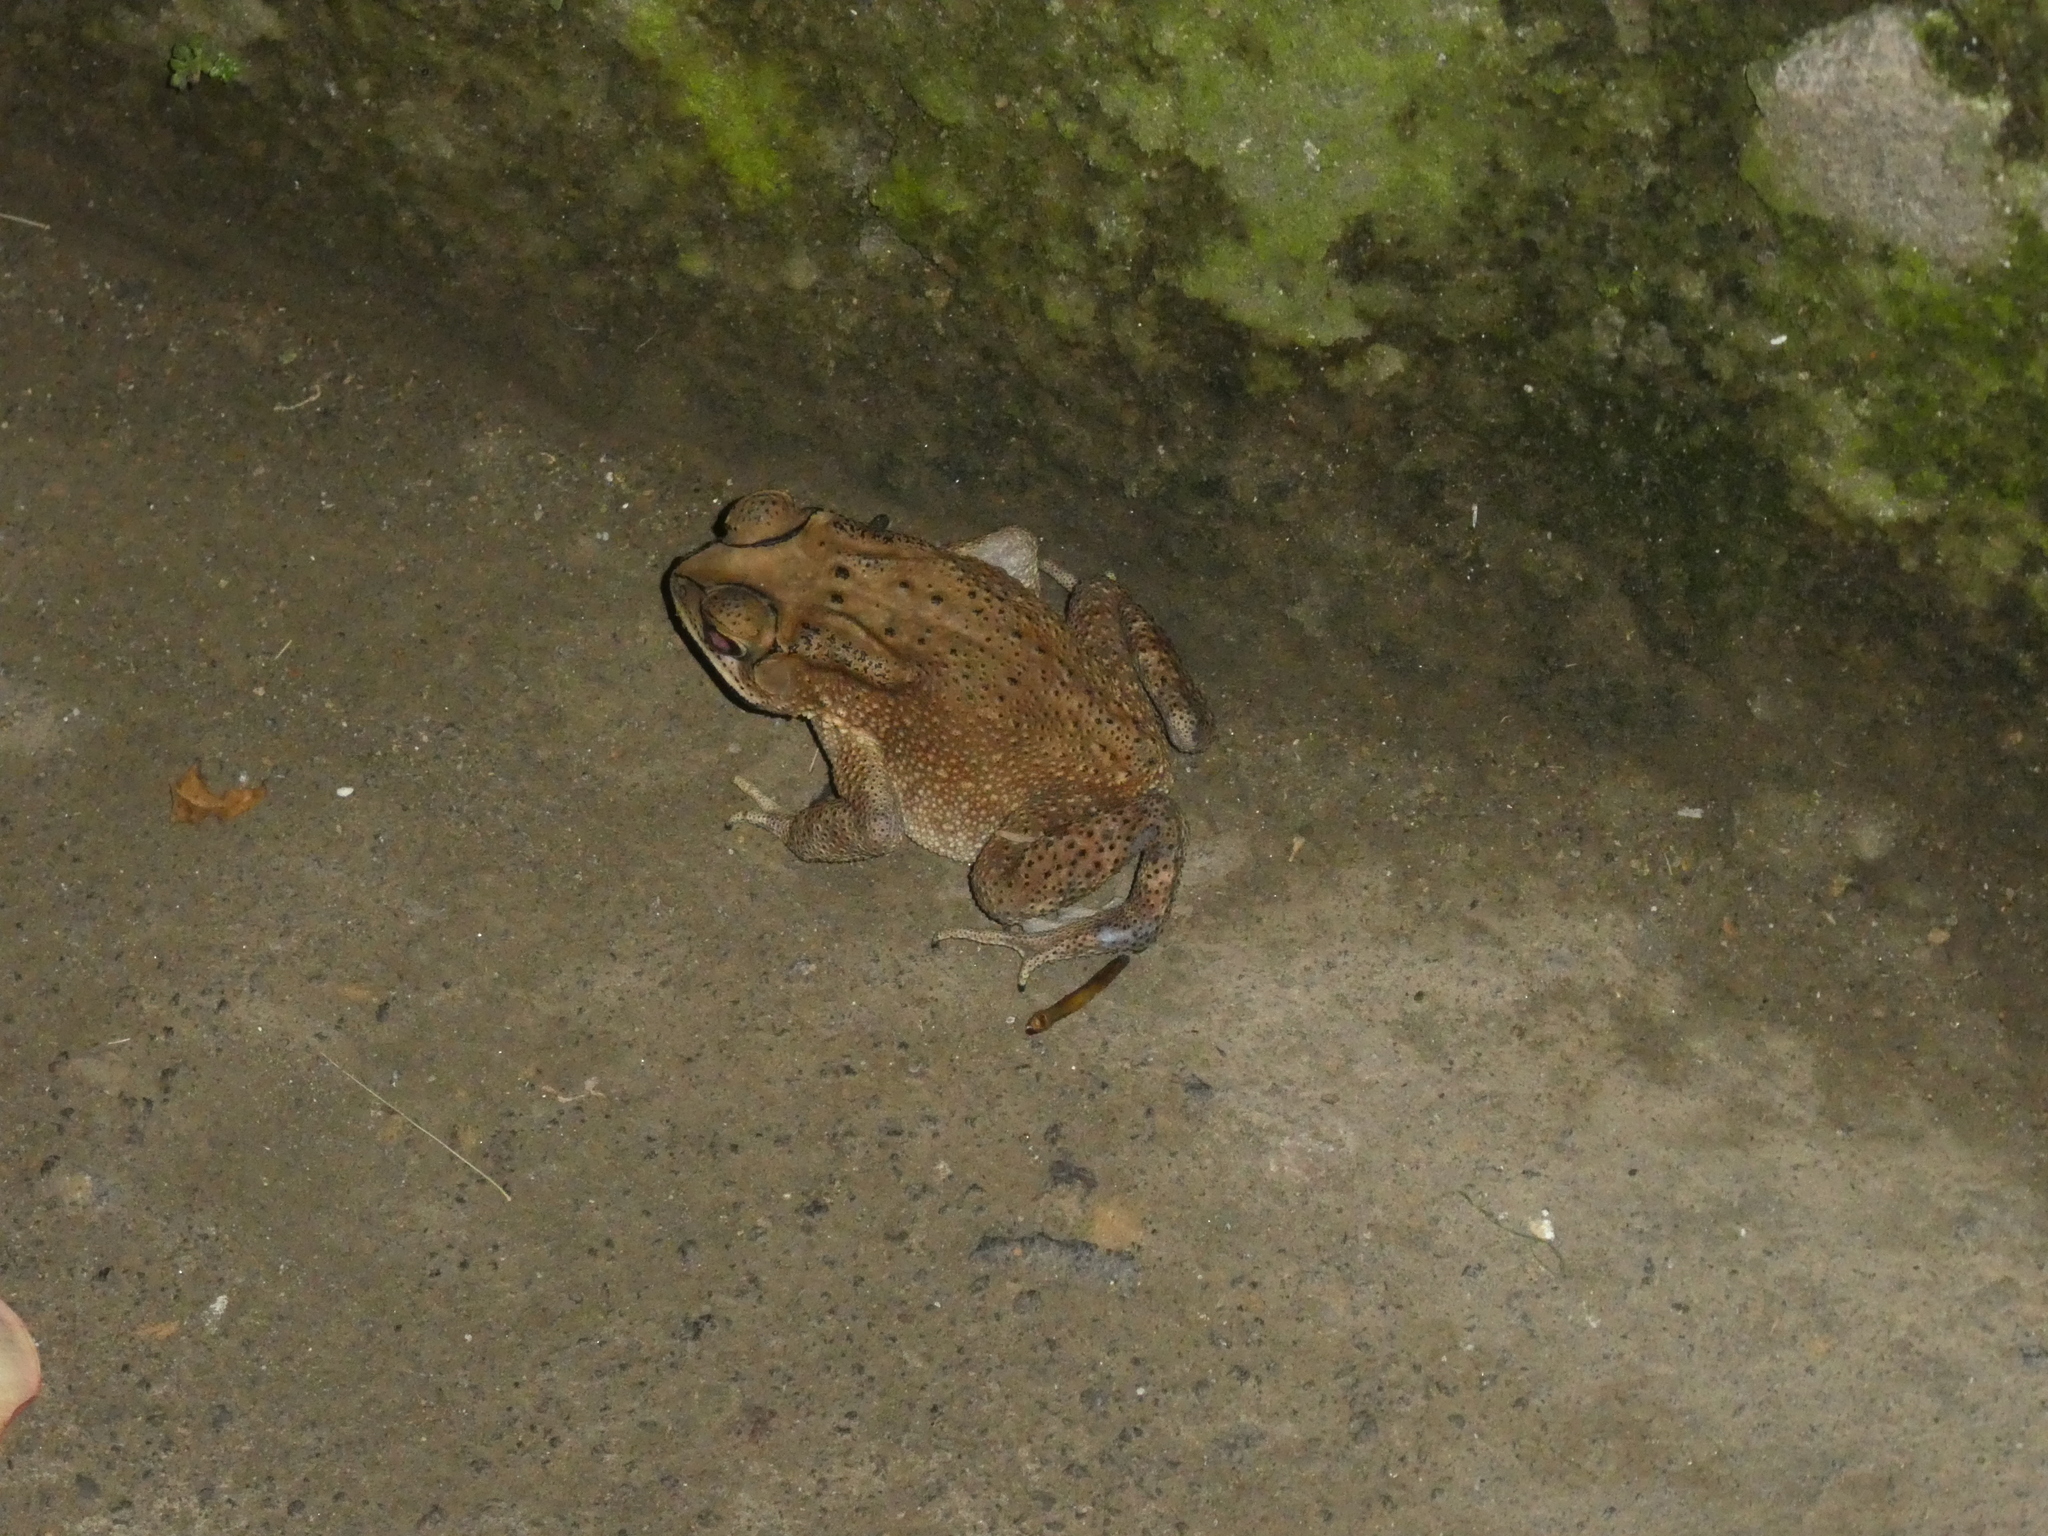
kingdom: Animalia
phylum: Chordata
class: Amphibia
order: Anura
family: Bufonidae
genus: Duttaphrynus
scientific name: Duttaphrynus melanostictus
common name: Common sunda toad
